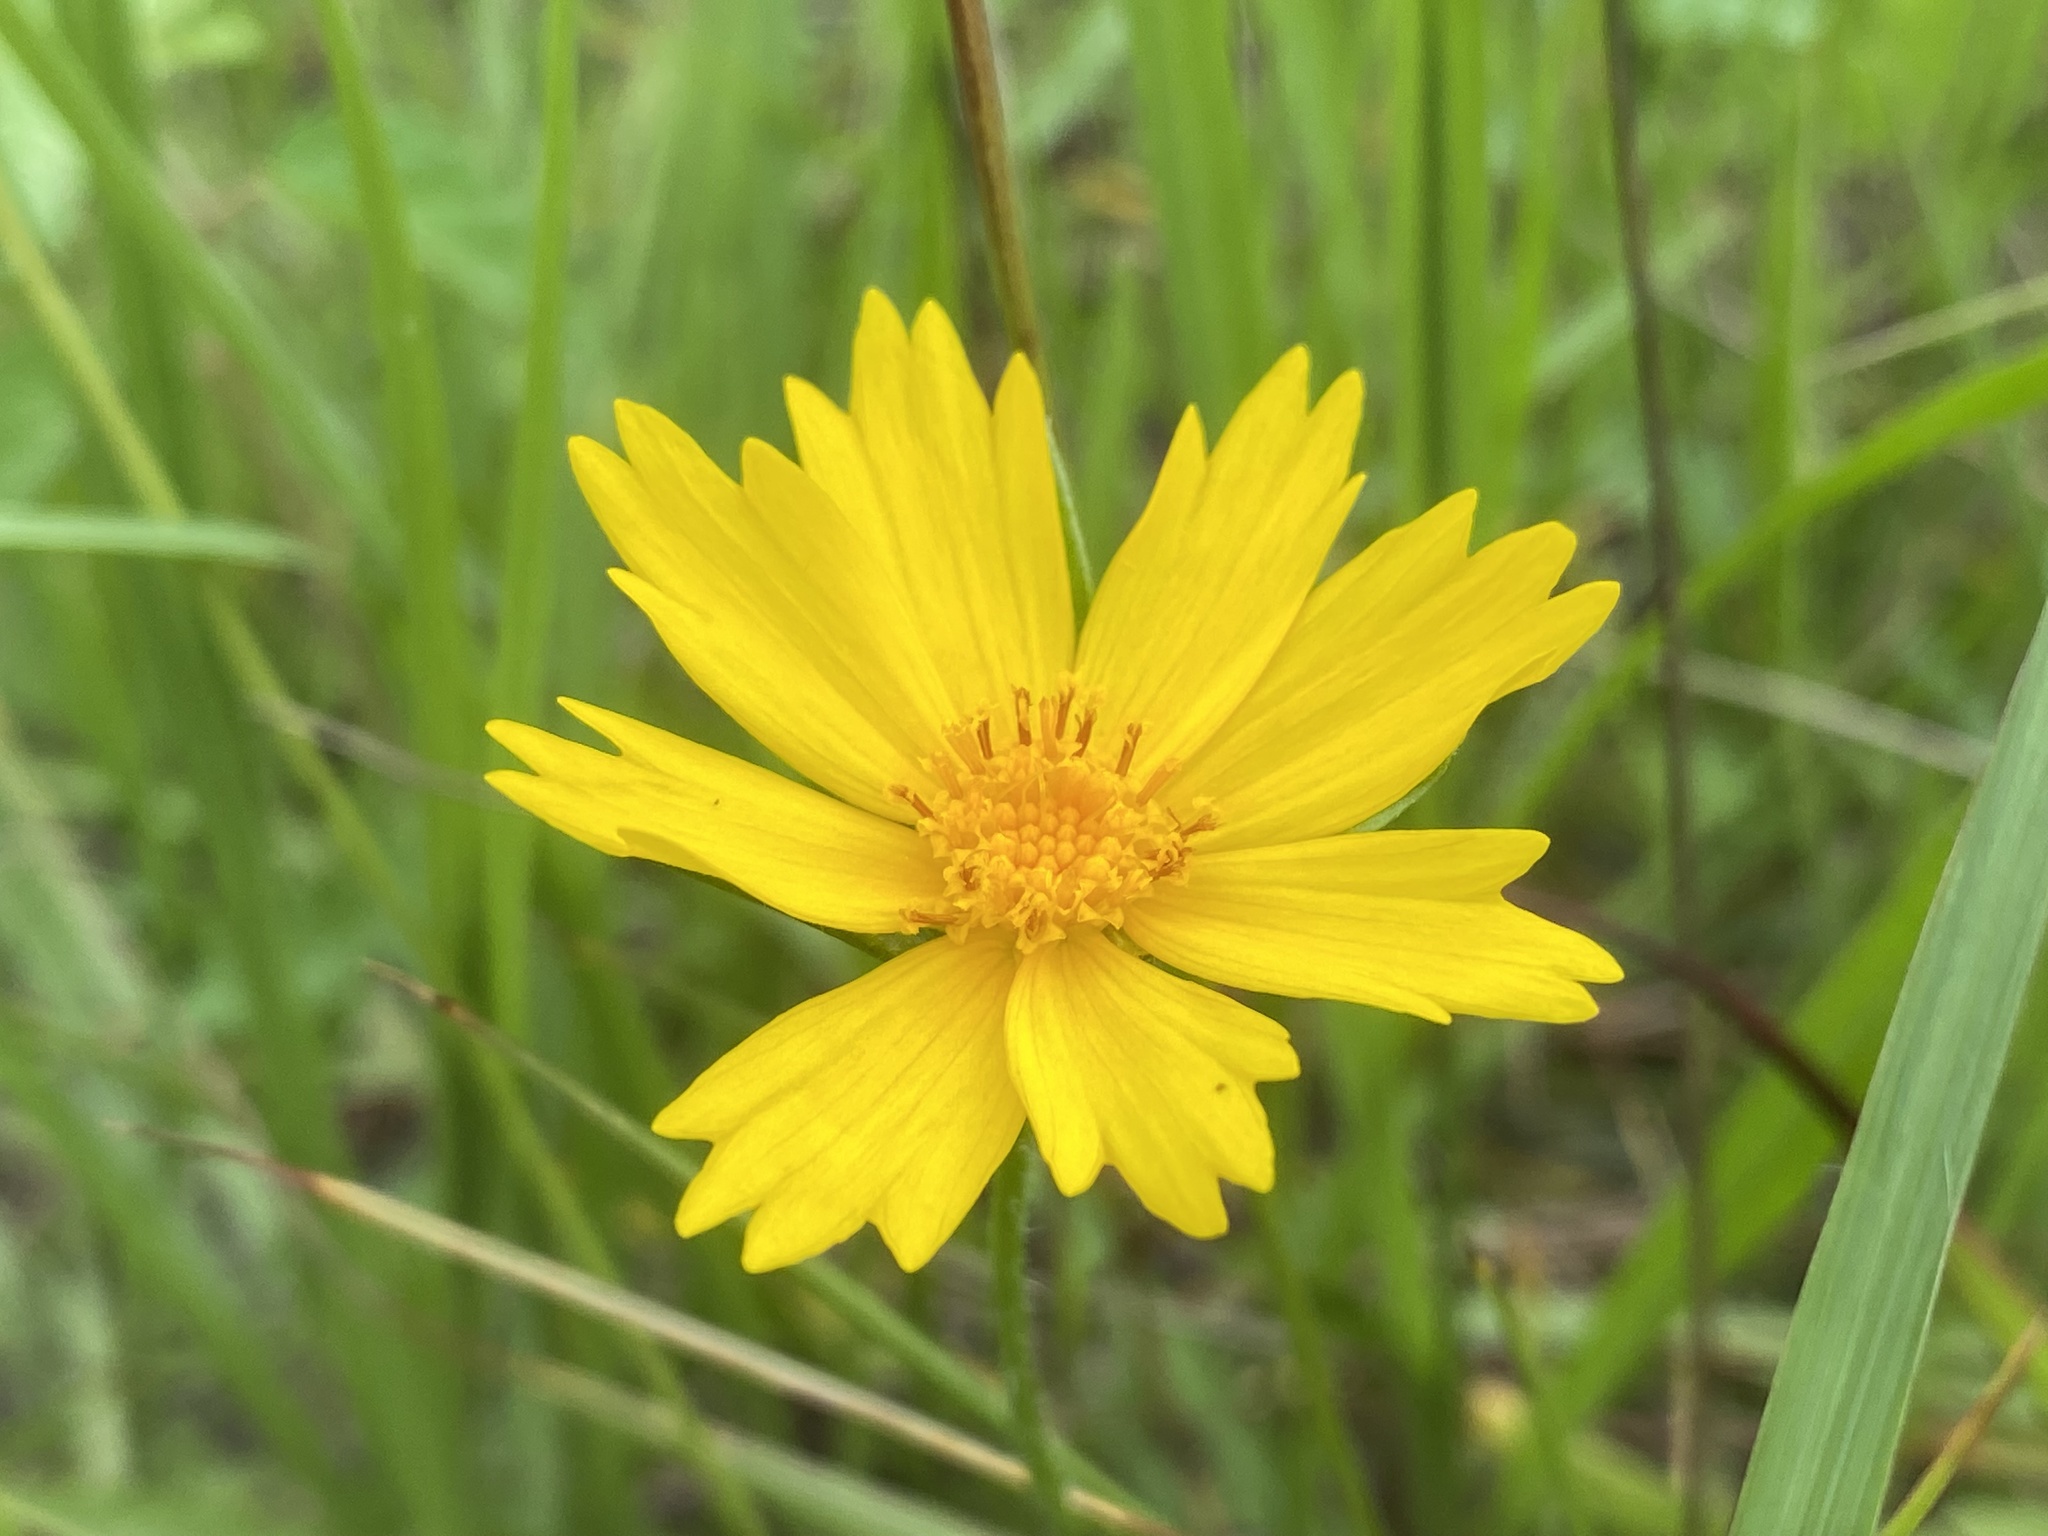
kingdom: Plantae
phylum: Tracheophyta
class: Magnoliopsida
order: Asterales
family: Asteraceae
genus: Coreopsis
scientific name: Coreopsis lanceolata
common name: Garden coreopsis
